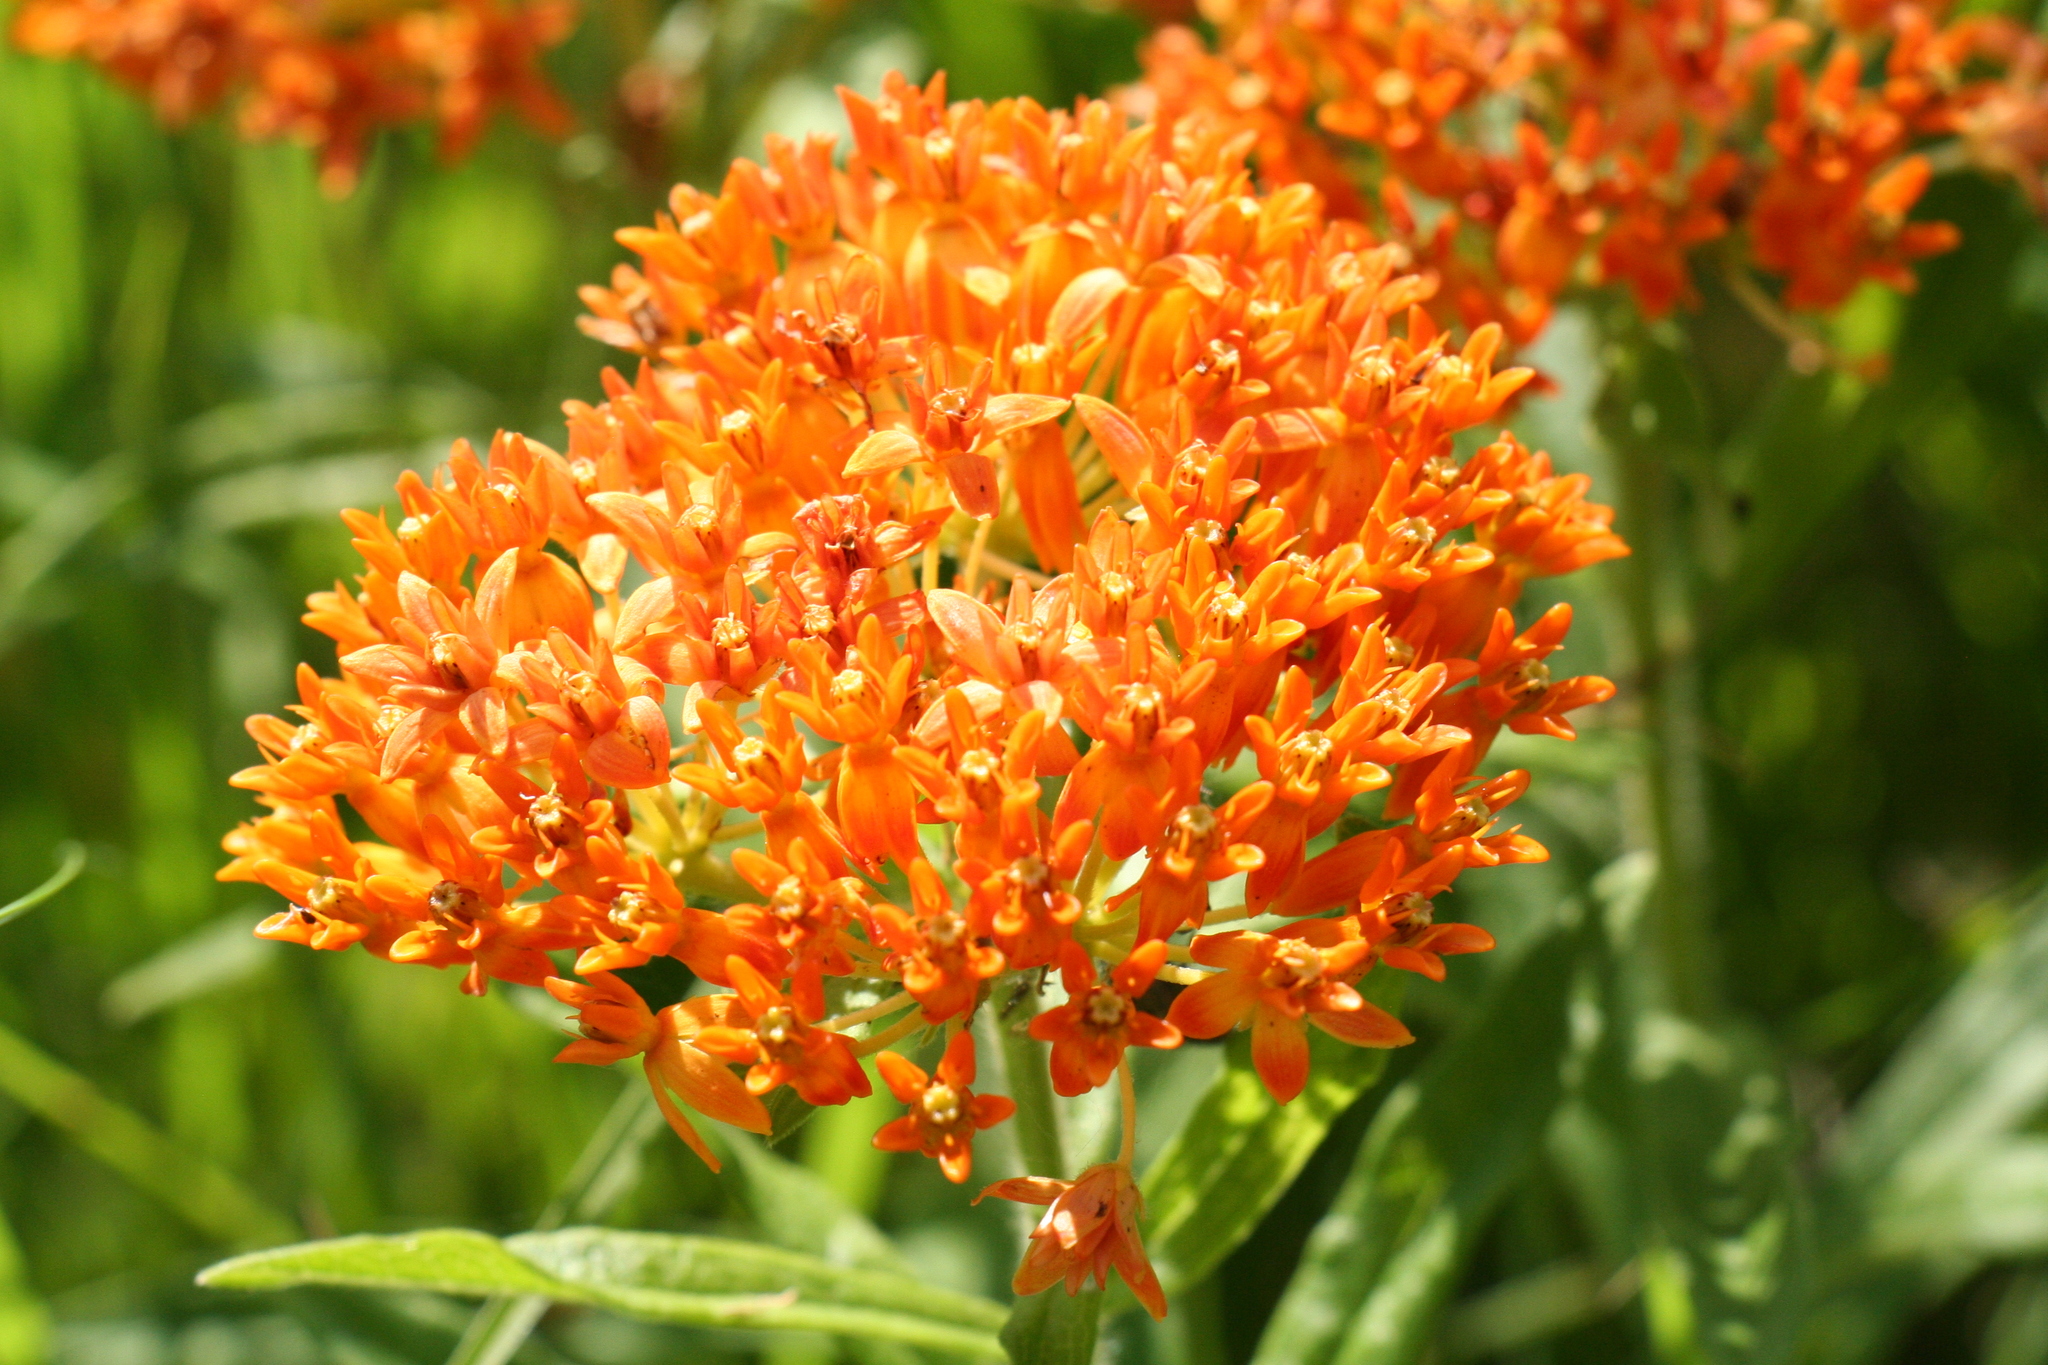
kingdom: Plantae
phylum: Tracheophyta
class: Magnoliopsida
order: Gentianales
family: Apocynaceae
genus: Asclepias
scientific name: Asclepias tuberosa
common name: Butterfly milkweed
